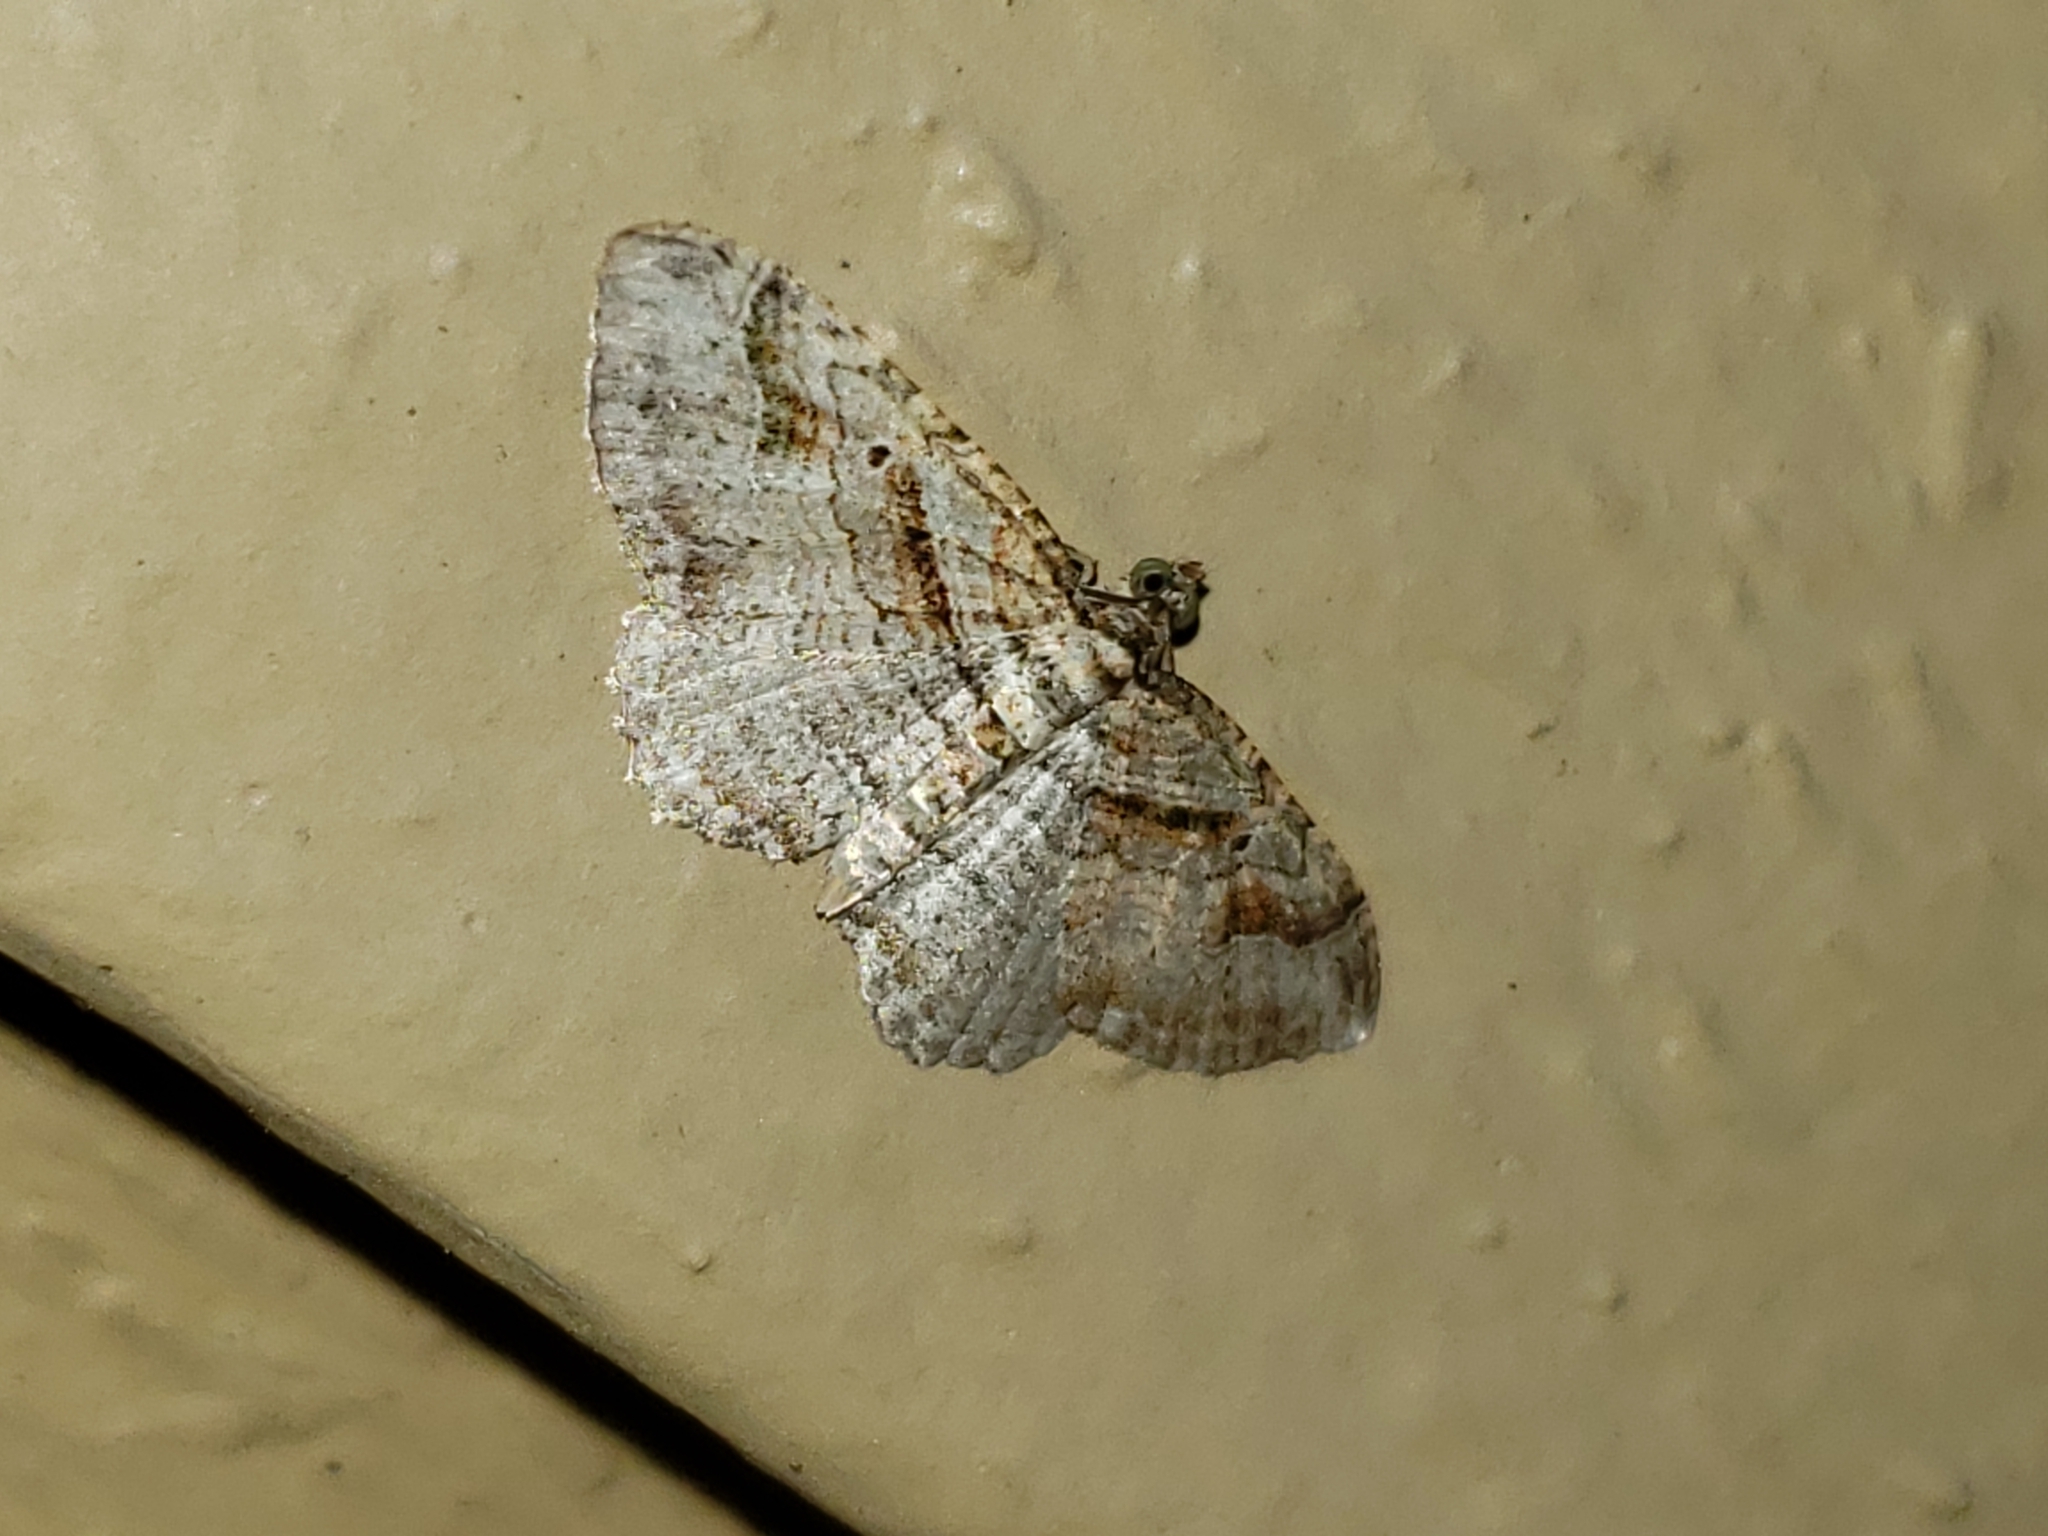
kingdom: Animalia
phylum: Arthropoda
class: Insecta
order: Lepidoptera
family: Geometridae
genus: Costaconvexa
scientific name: Costaconvexa centrostrigaria
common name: Bent-line carpet
